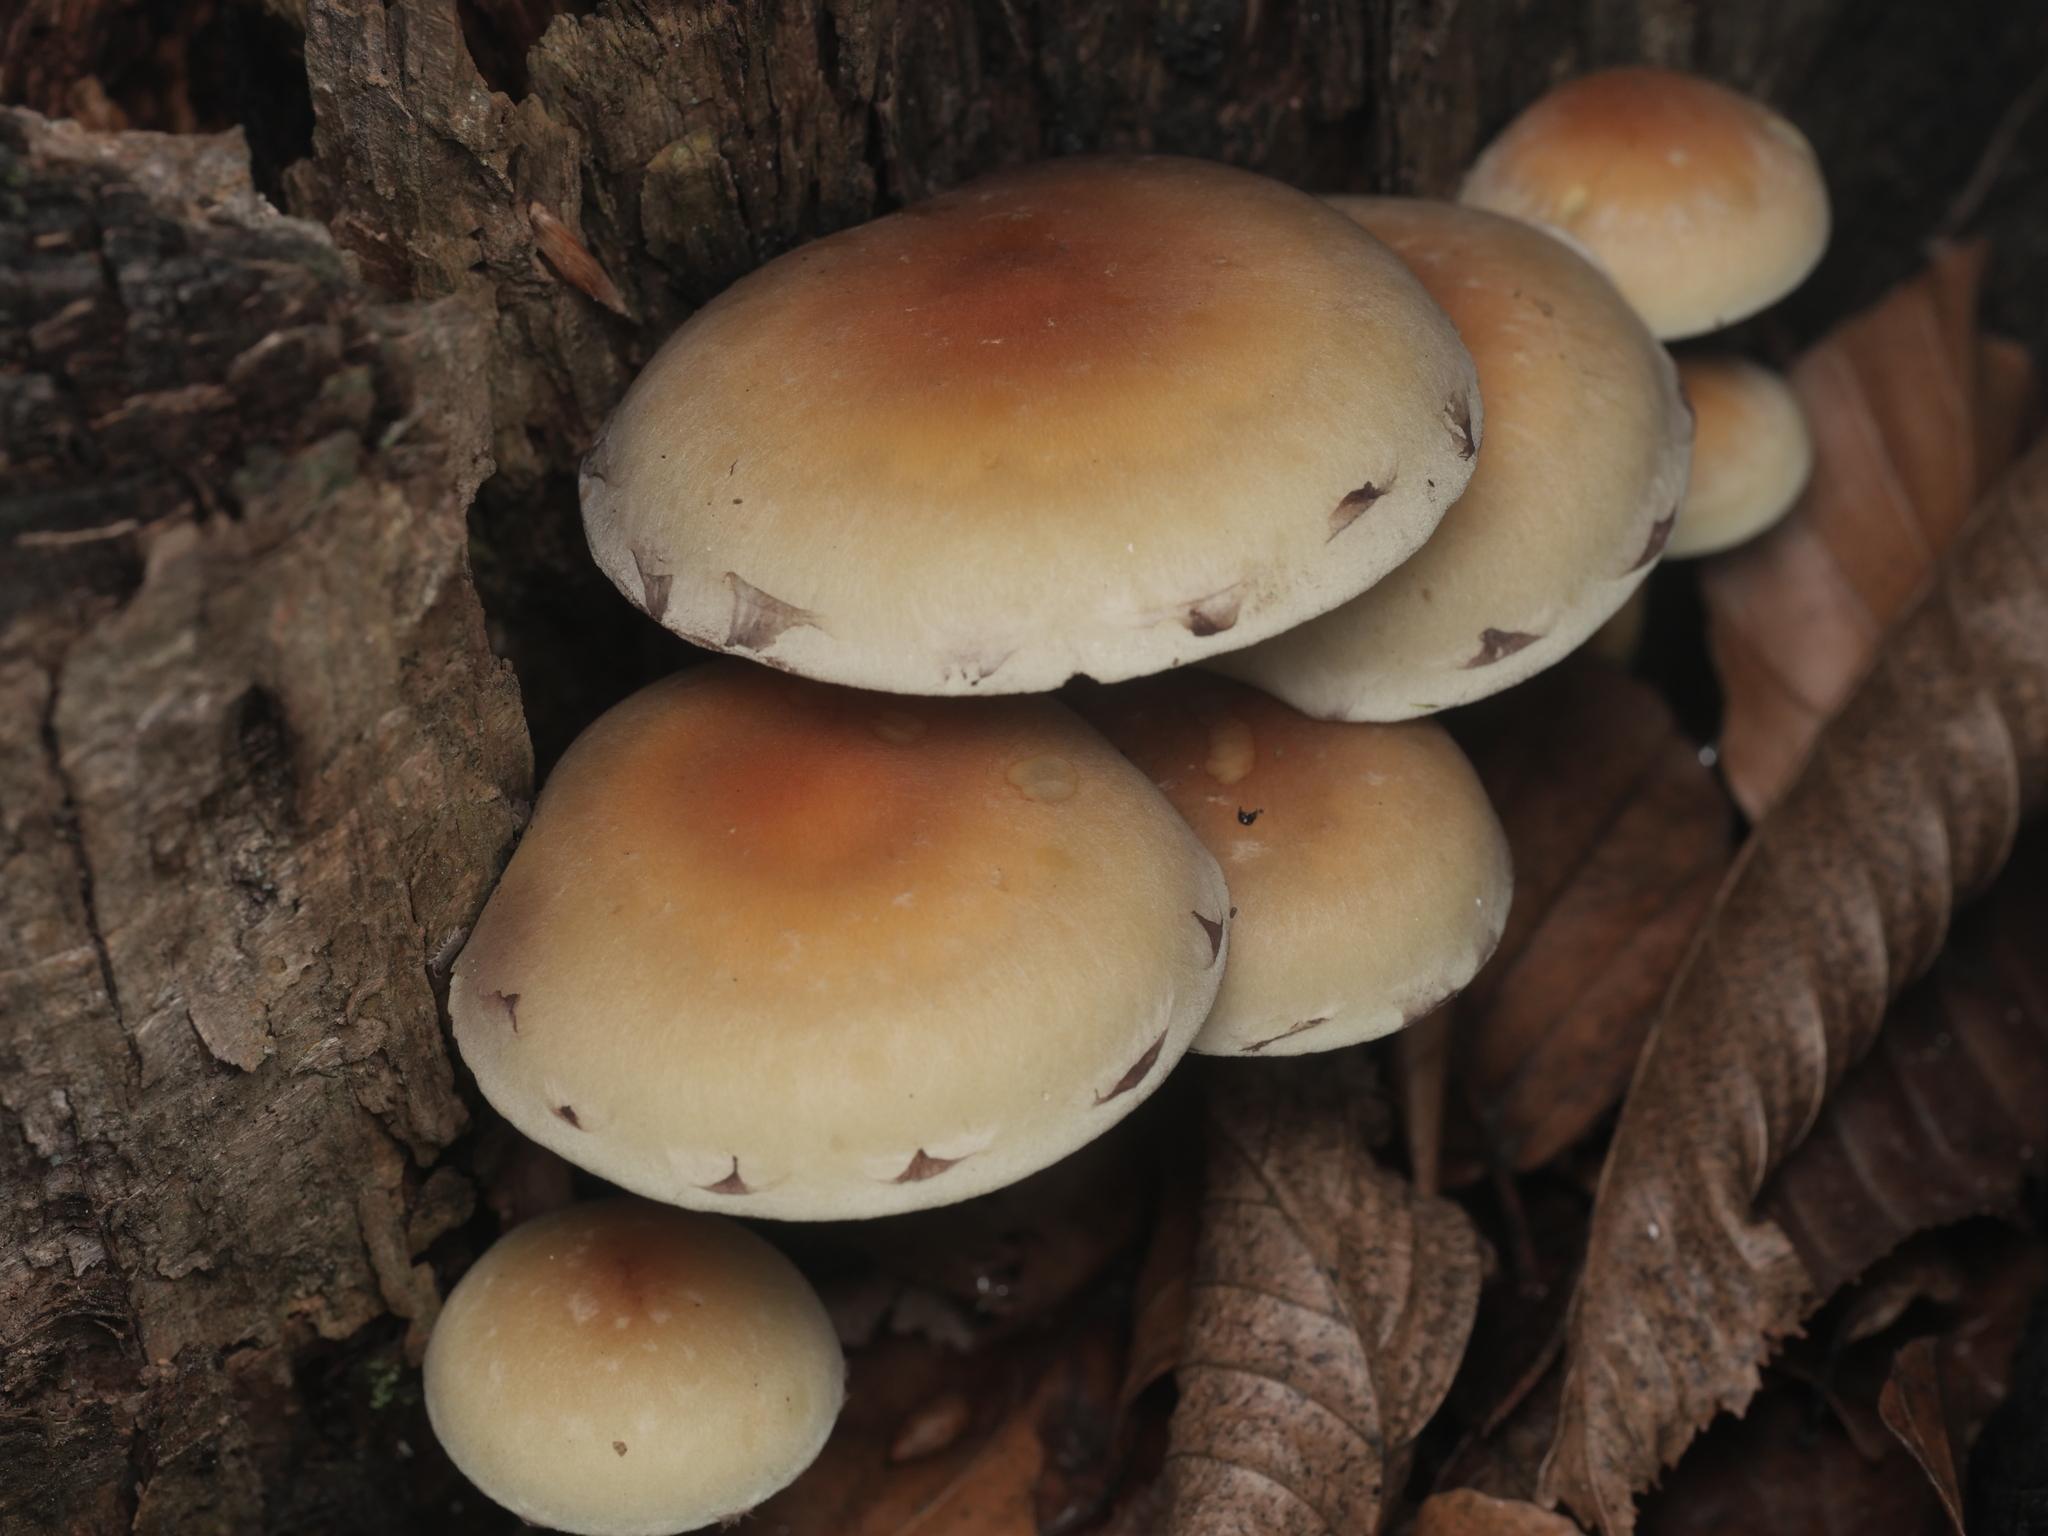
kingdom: Fungi
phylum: Basidiomycota
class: Agaricomycetes
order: Agaricales
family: Strophariaceae
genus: Hypholoma
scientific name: Hypholoma fasciculare
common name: Sulphur tuft
